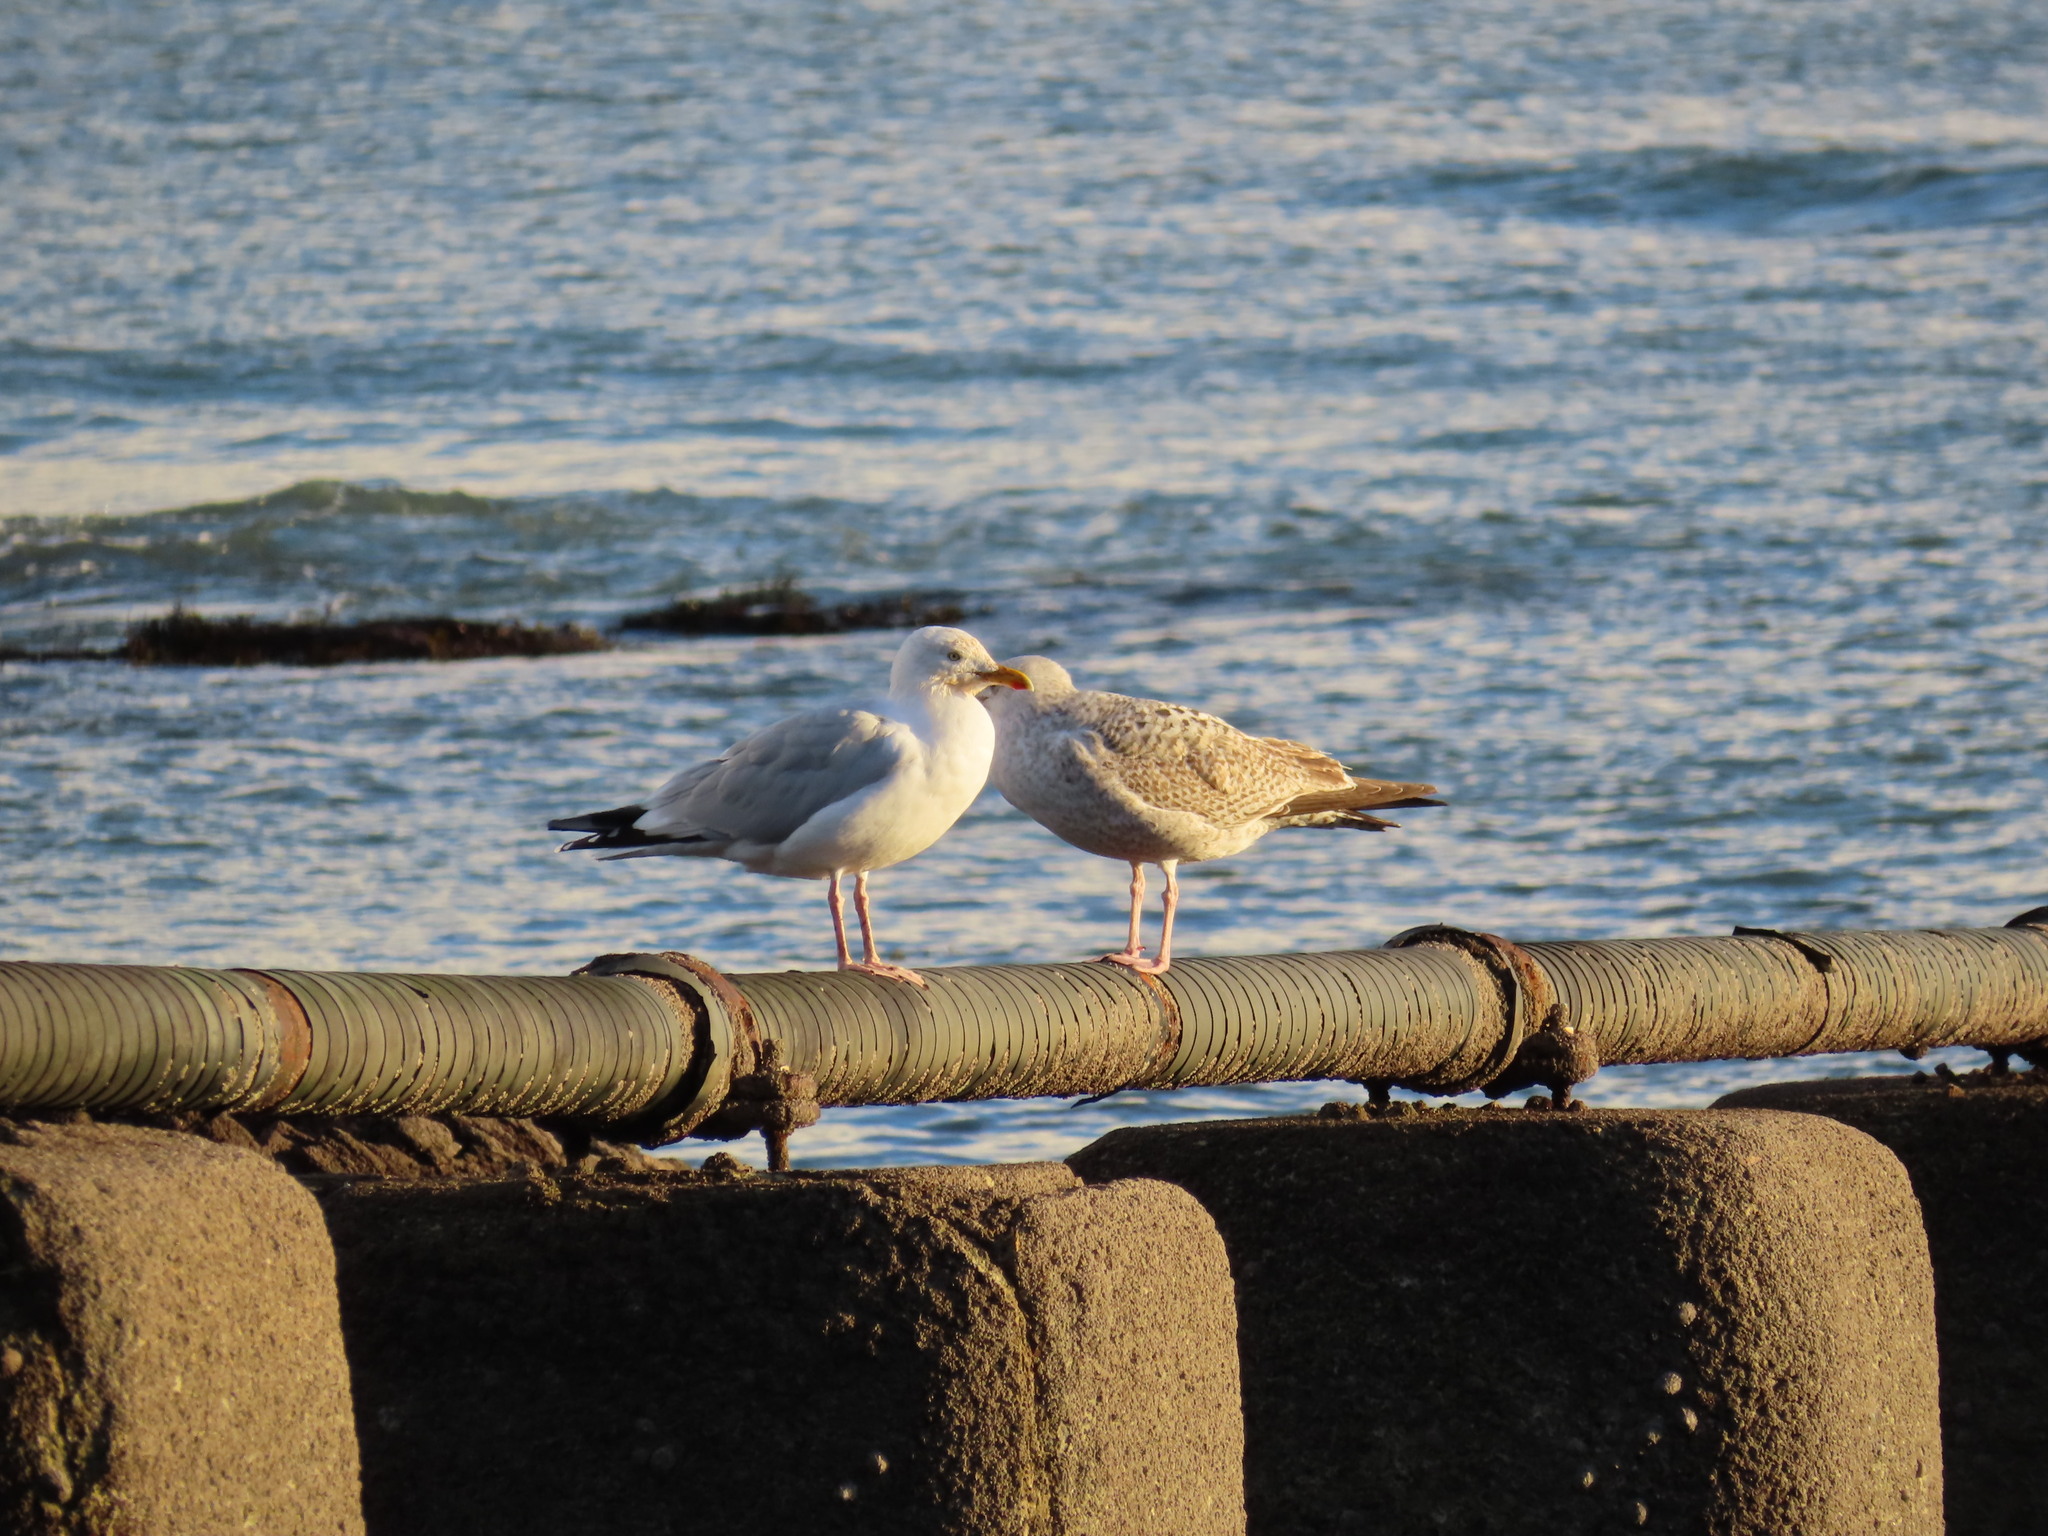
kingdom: Animalia
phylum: Chordata
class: Aves
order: Charadriiformes
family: Laridae
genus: Larus
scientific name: Larus argentatus
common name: Herring gull
